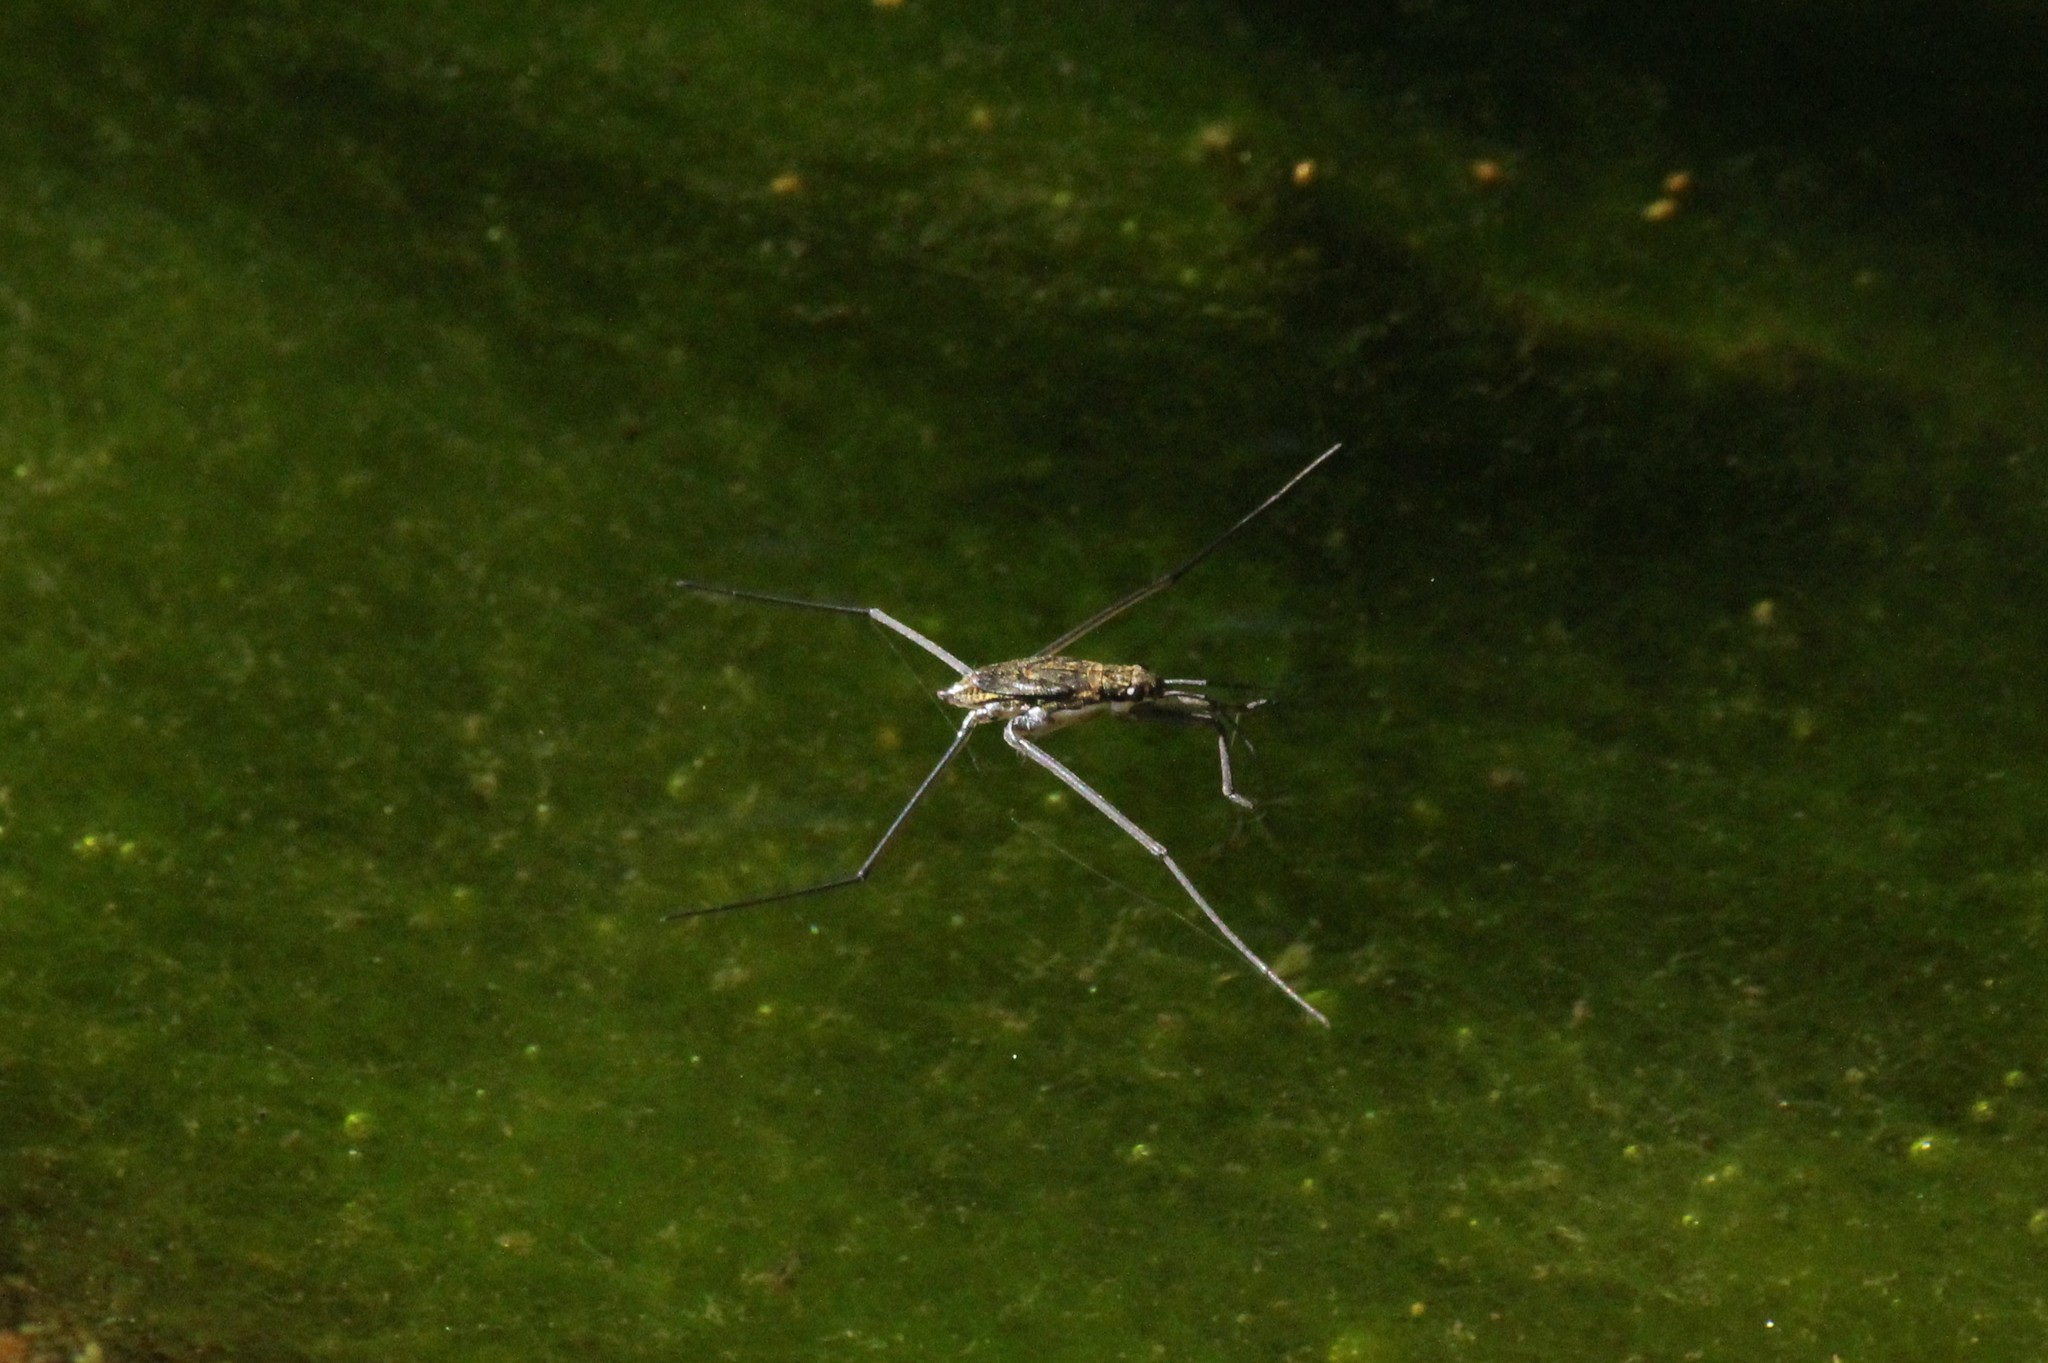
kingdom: Animalia
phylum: Arthropoda
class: Insecta
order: Hemiptera
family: Gerridae
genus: Aquarius
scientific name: Aquarius remigis
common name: Common water strider
